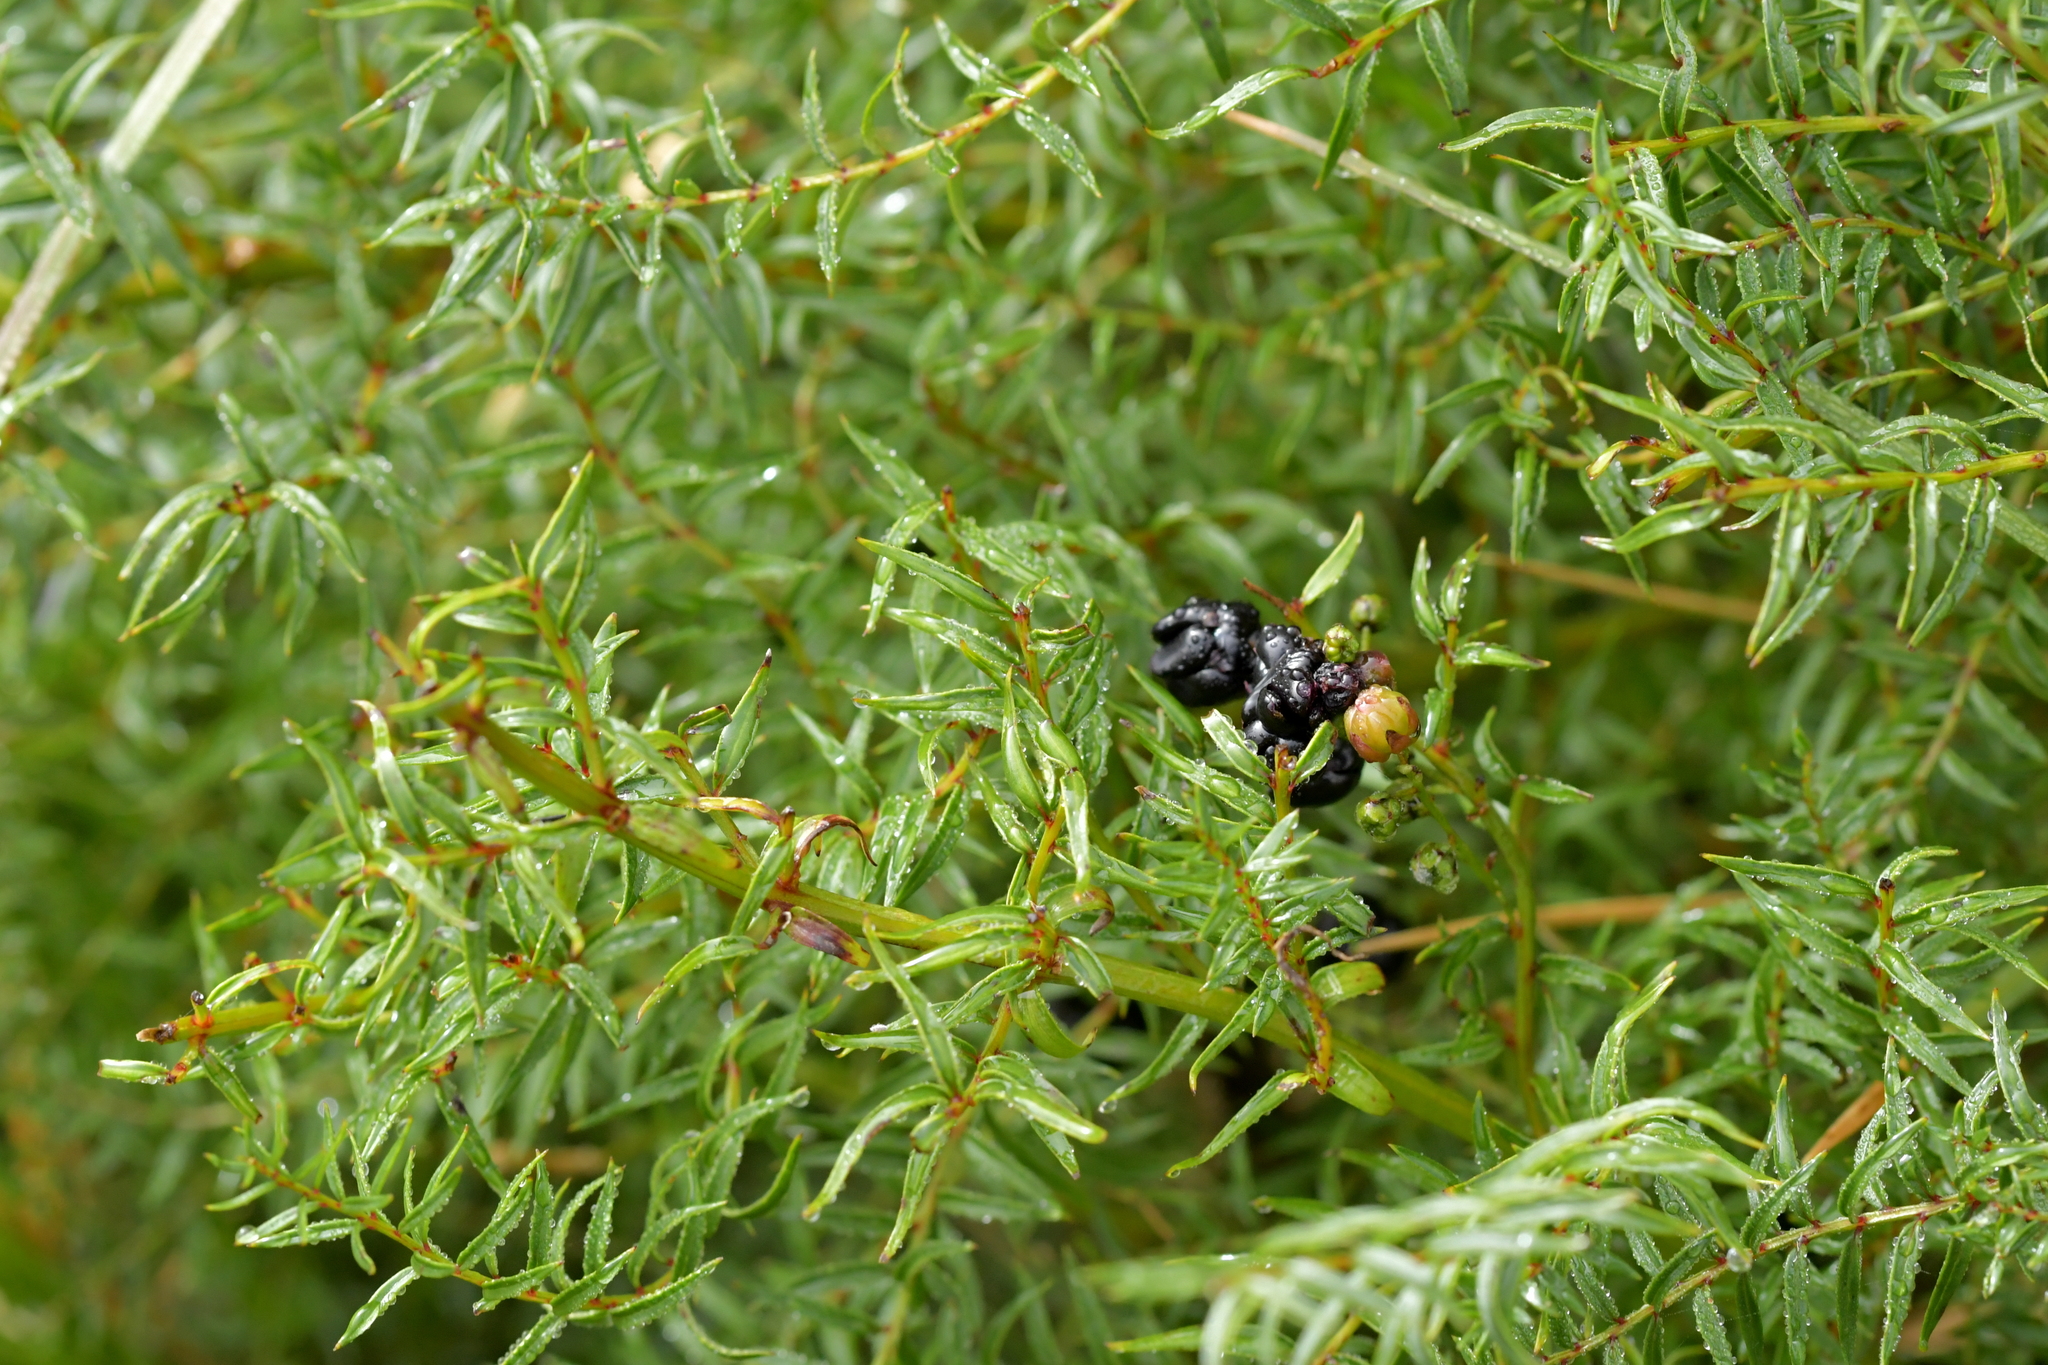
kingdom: Plantae
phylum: Tracheophyta
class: Magnoliopsida
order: Cucurbitales
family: Coriariaceae
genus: Coriaria
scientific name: Coriaria angustissima
